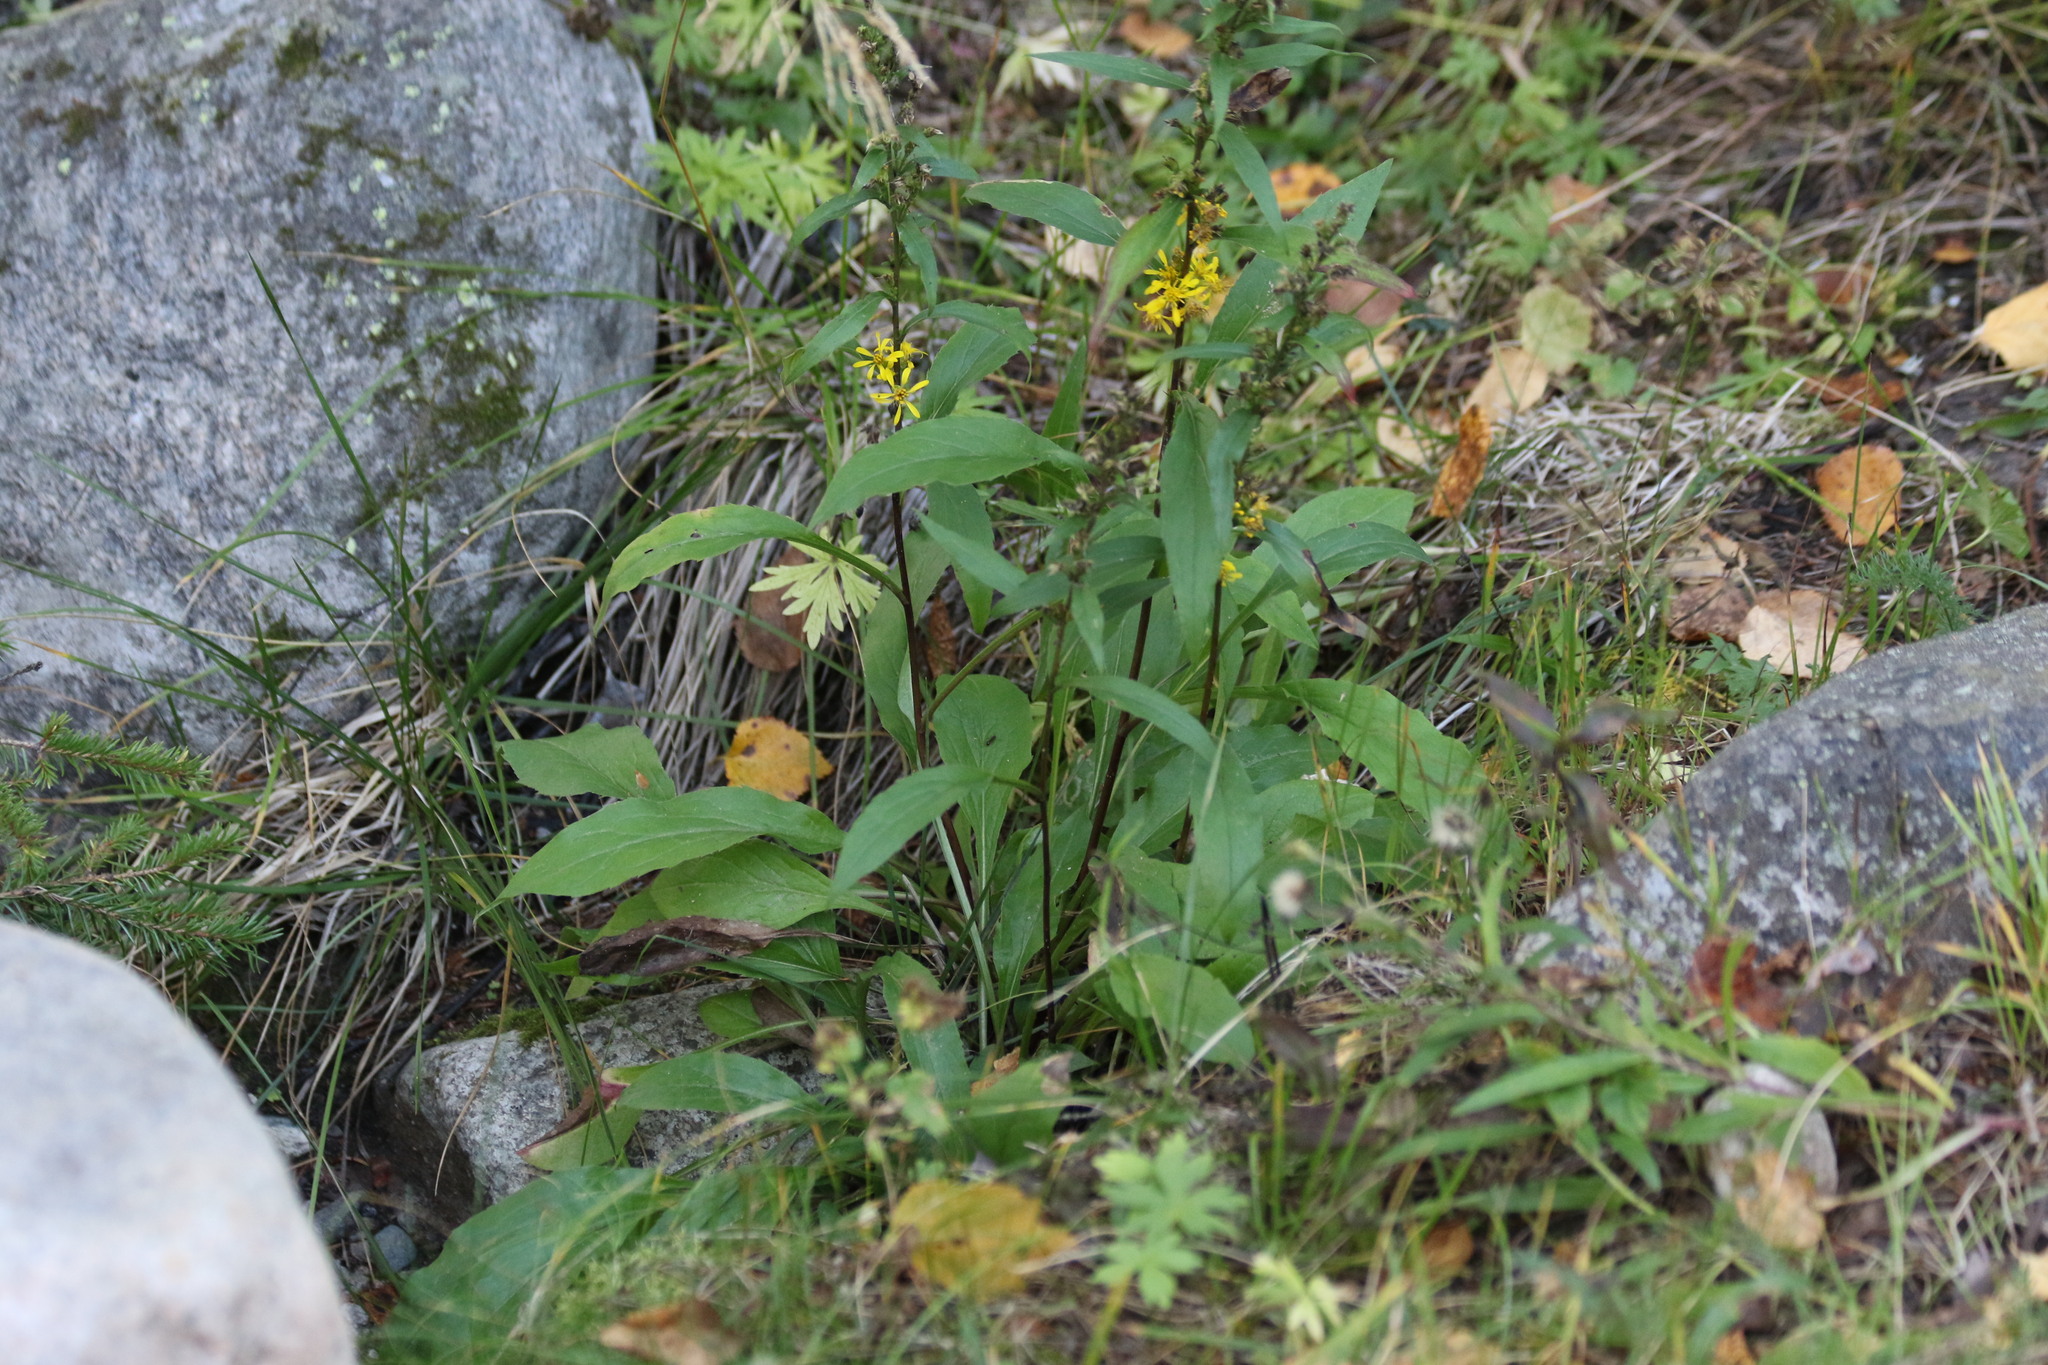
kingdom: Plantae
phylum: Tracheophyta
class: Magnoliopsida
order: Asterales
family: Asteraceae
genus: Solidago
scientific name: Solidago virgaurea
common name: Goldenrod
